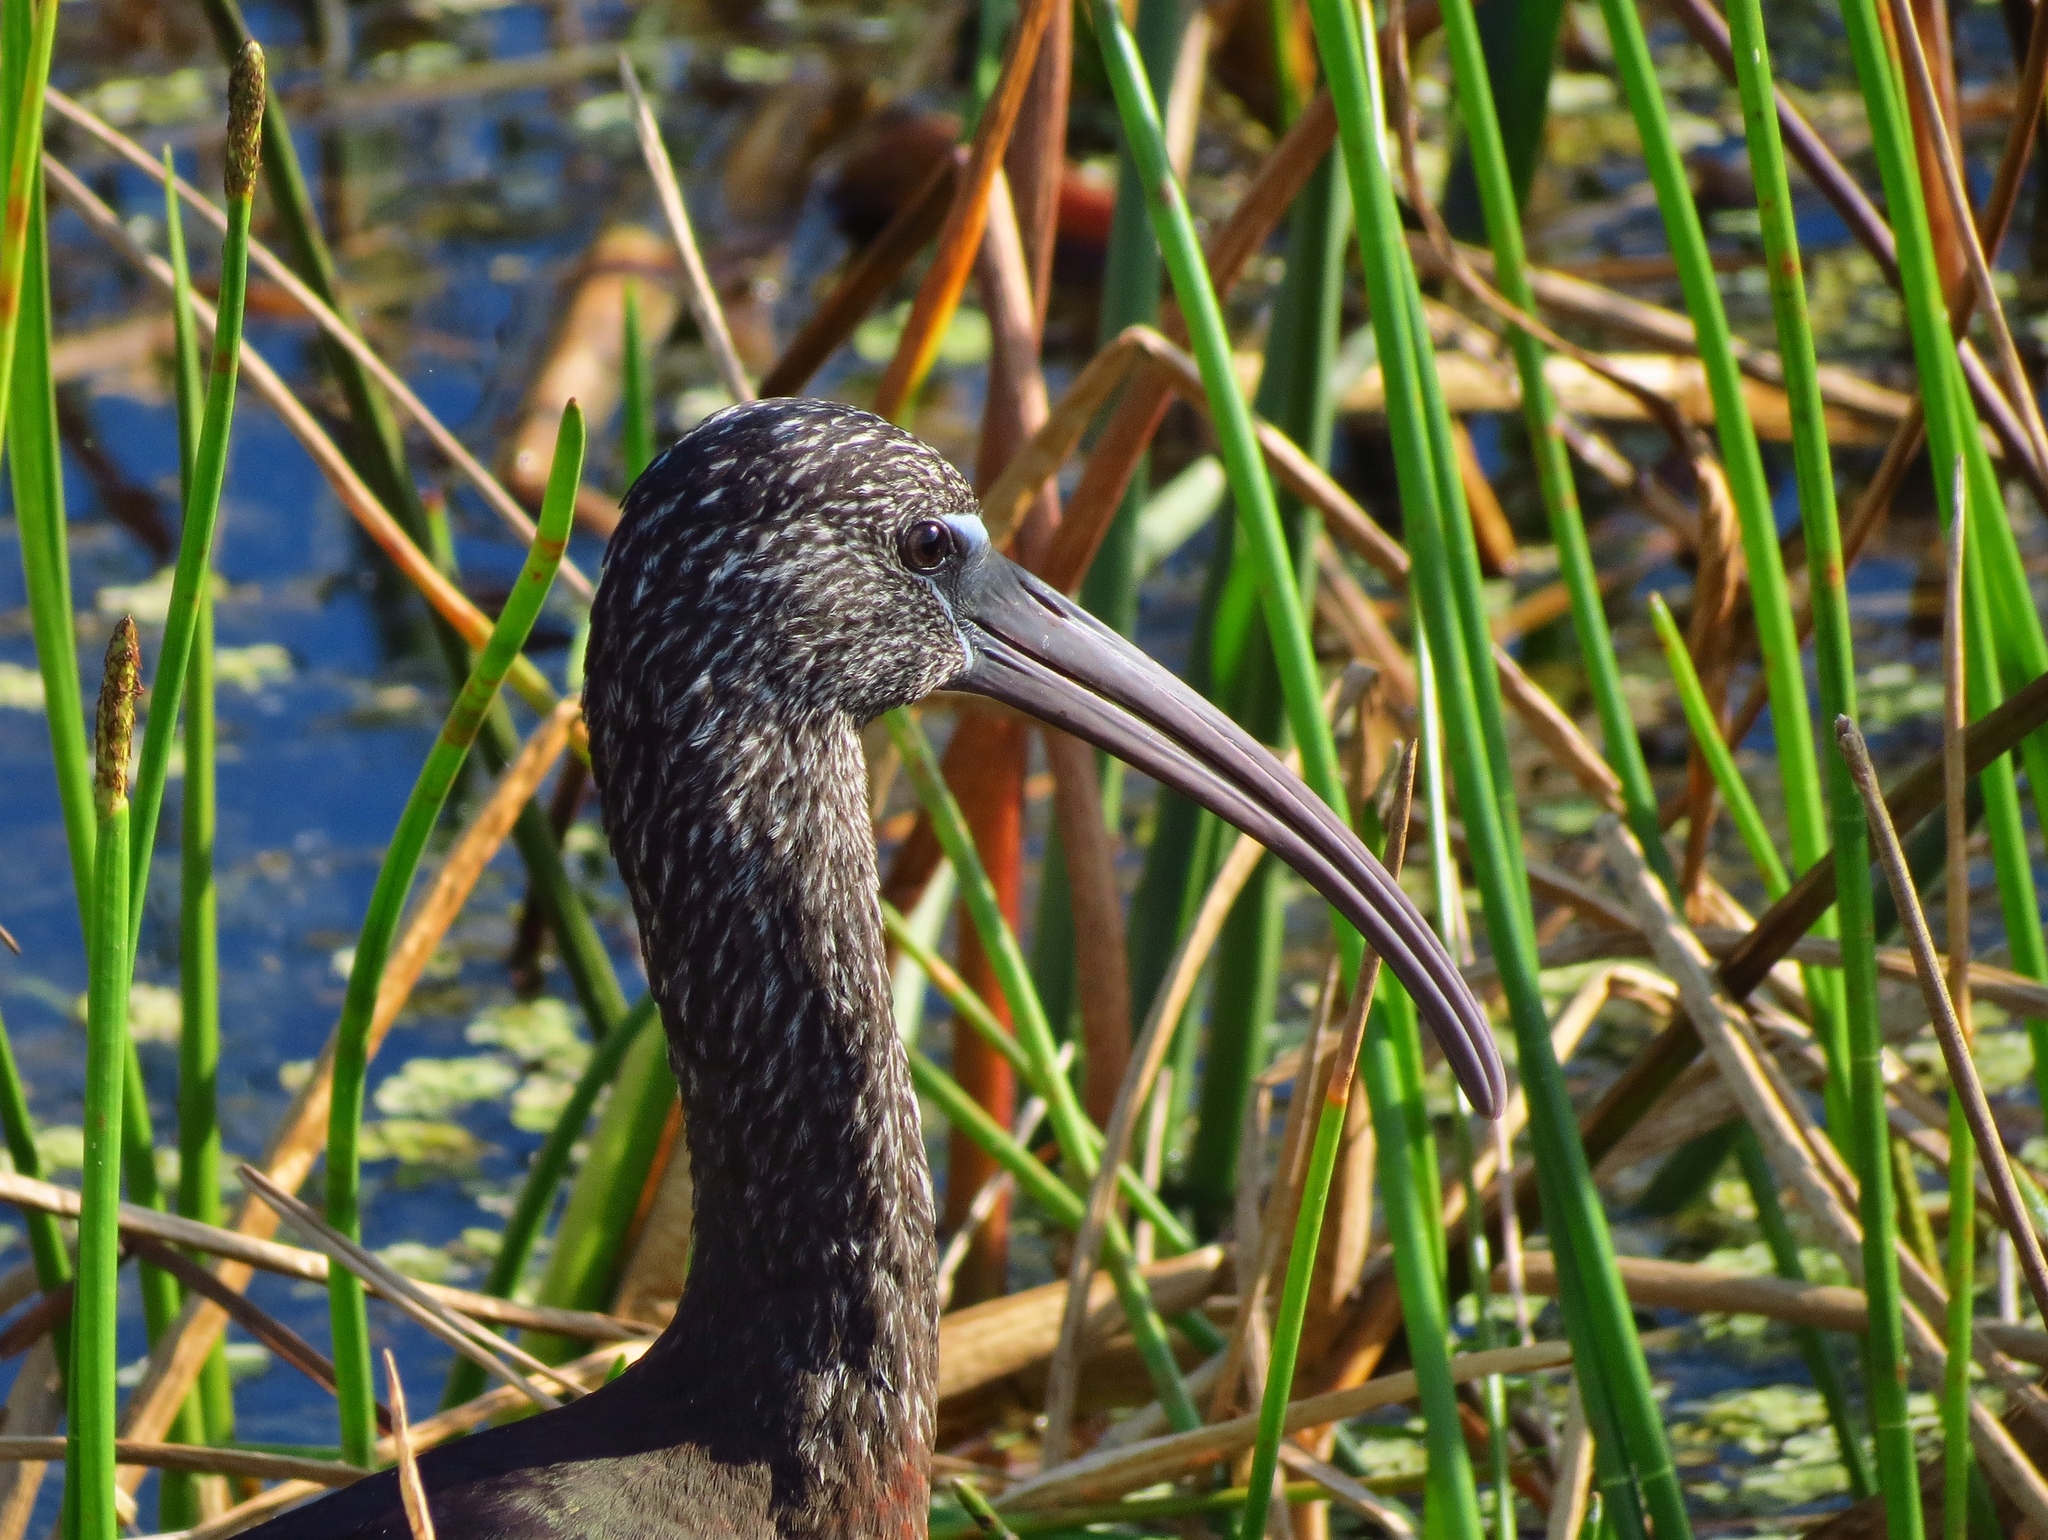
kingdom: Animalia
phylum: Chordata
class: Aves
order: Pelecaniformes
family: Threskiornithidae
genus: Plegadis
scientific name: Plegadis falcinellus
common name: Glossy ibis
